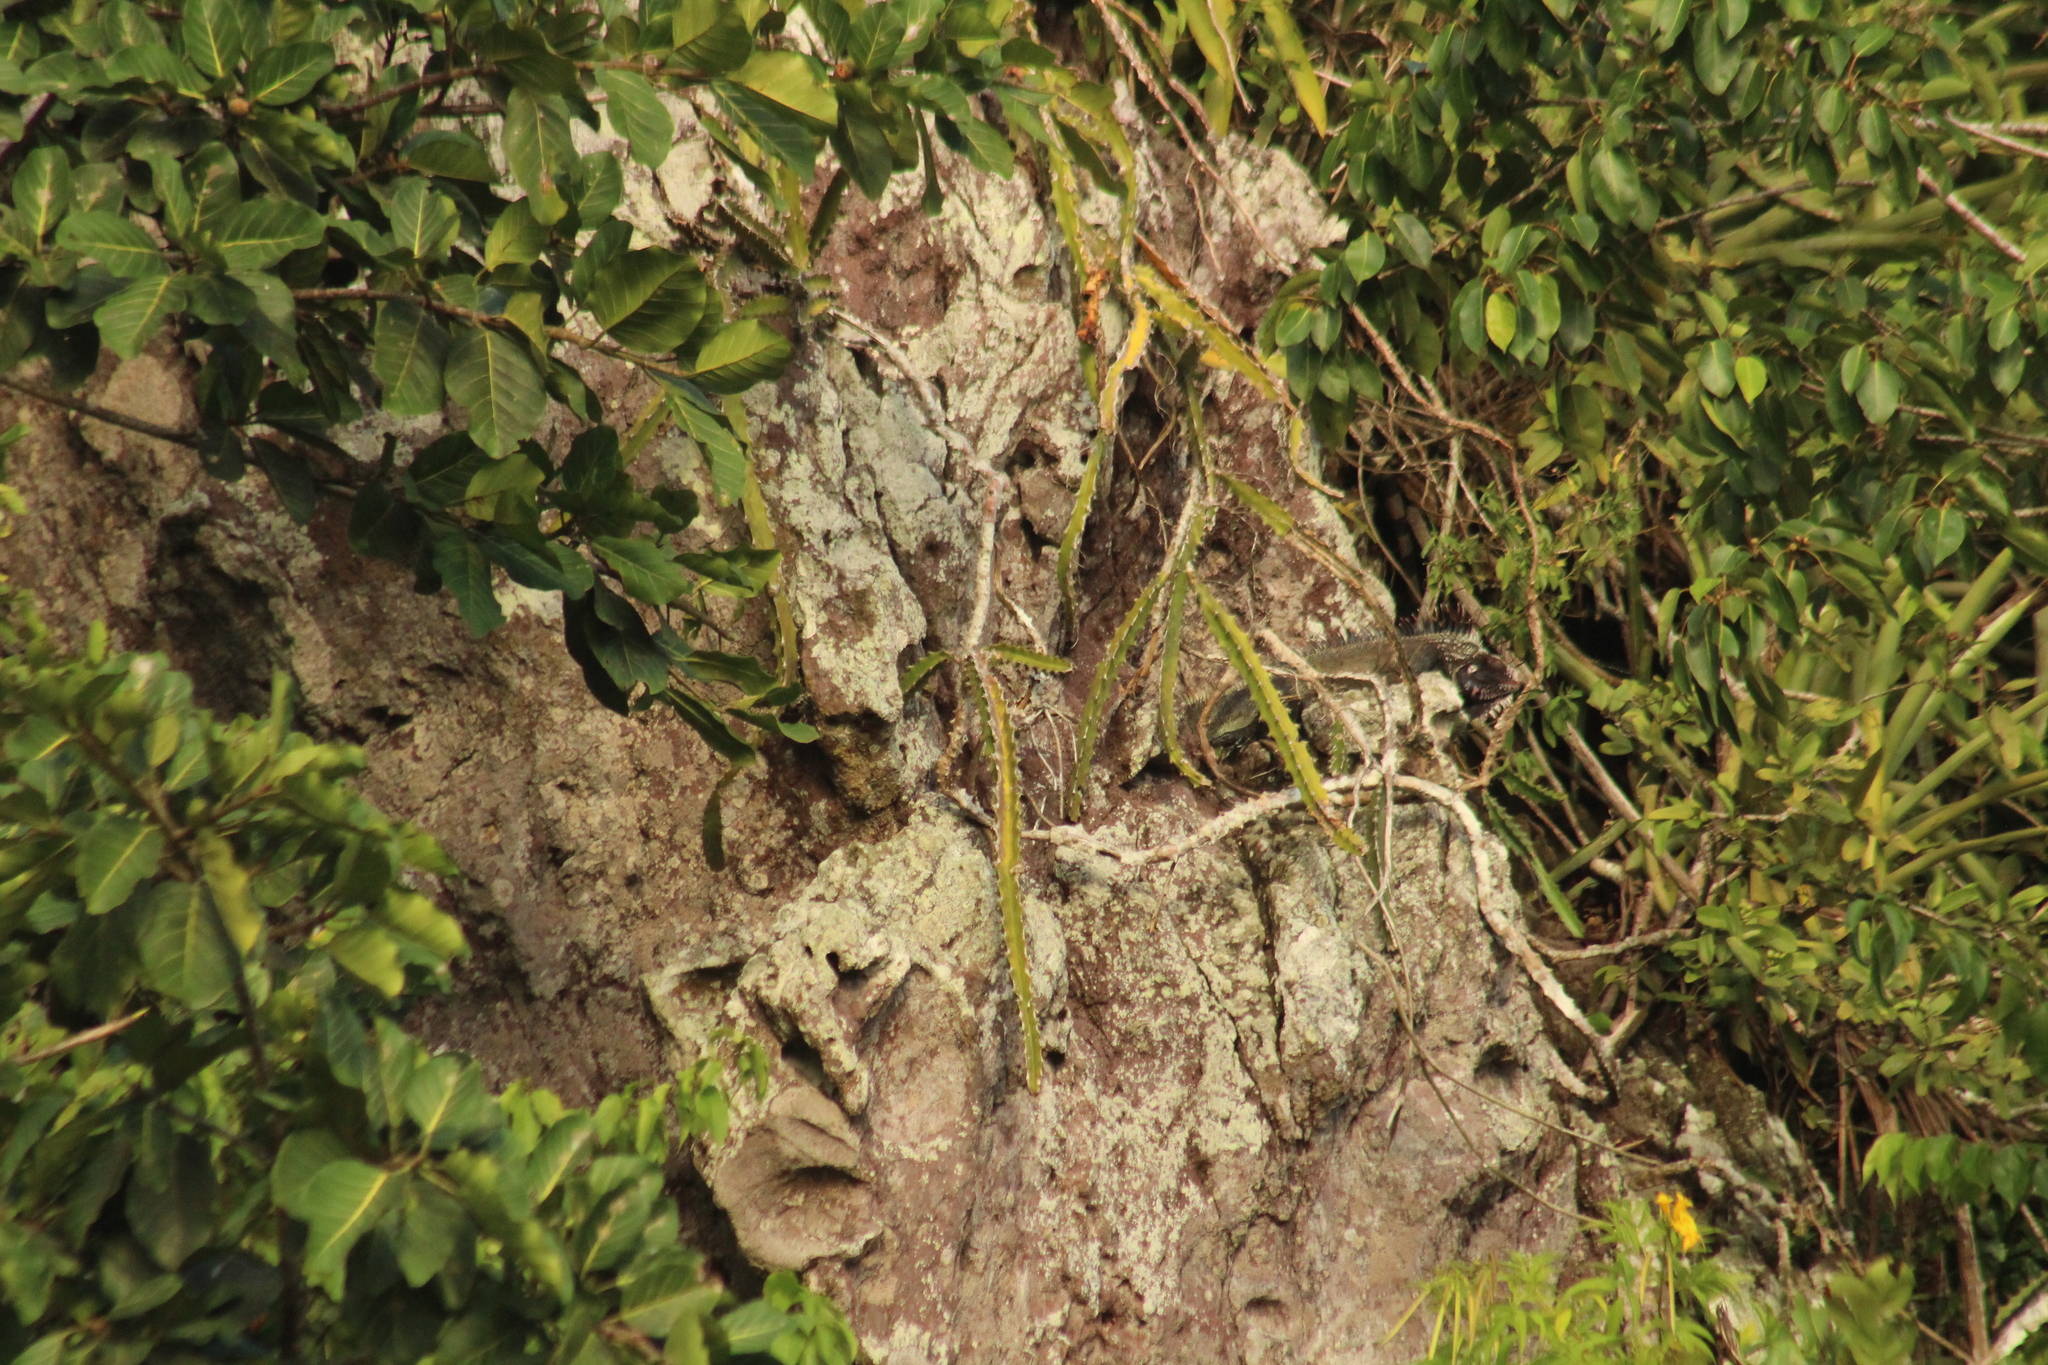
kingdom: Animalia
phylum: Chordata
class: Squamata
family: Iguanidae
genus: Iguana
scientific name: Iguana iguana
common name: Green iguana
